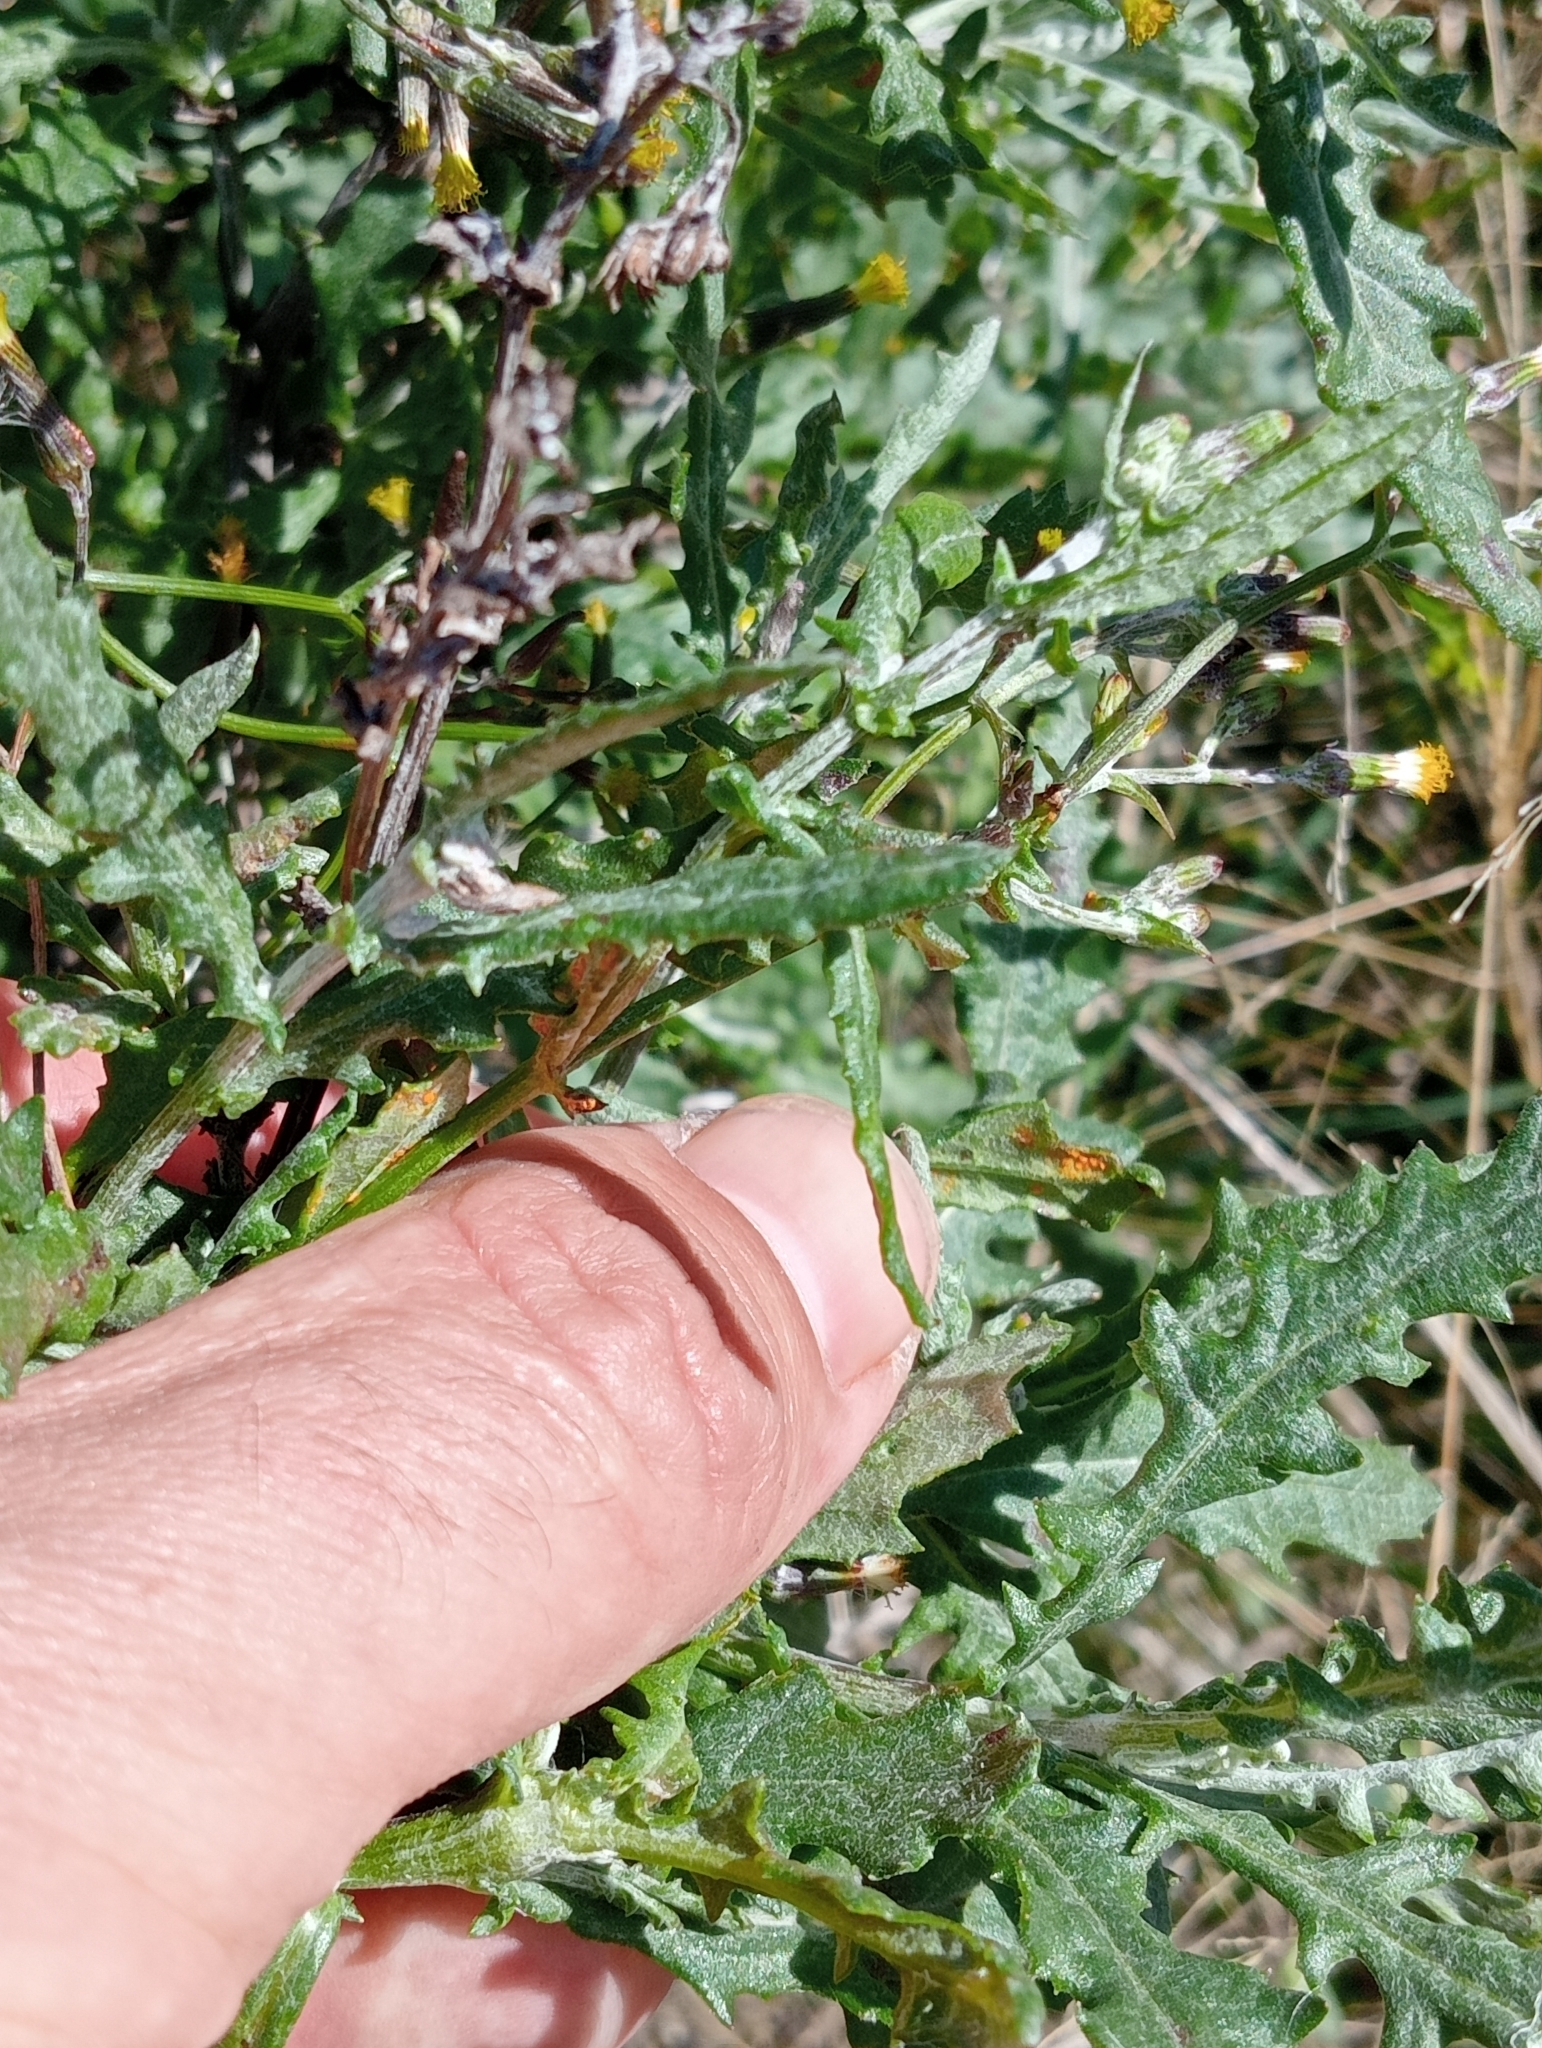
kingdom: Plantae
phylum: Tracheophyta
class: Magnoliopsida
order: Asterales
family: Asteraceae
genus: Senecio
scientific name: Senecio glomeratus
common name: Cutleaf burnweed
